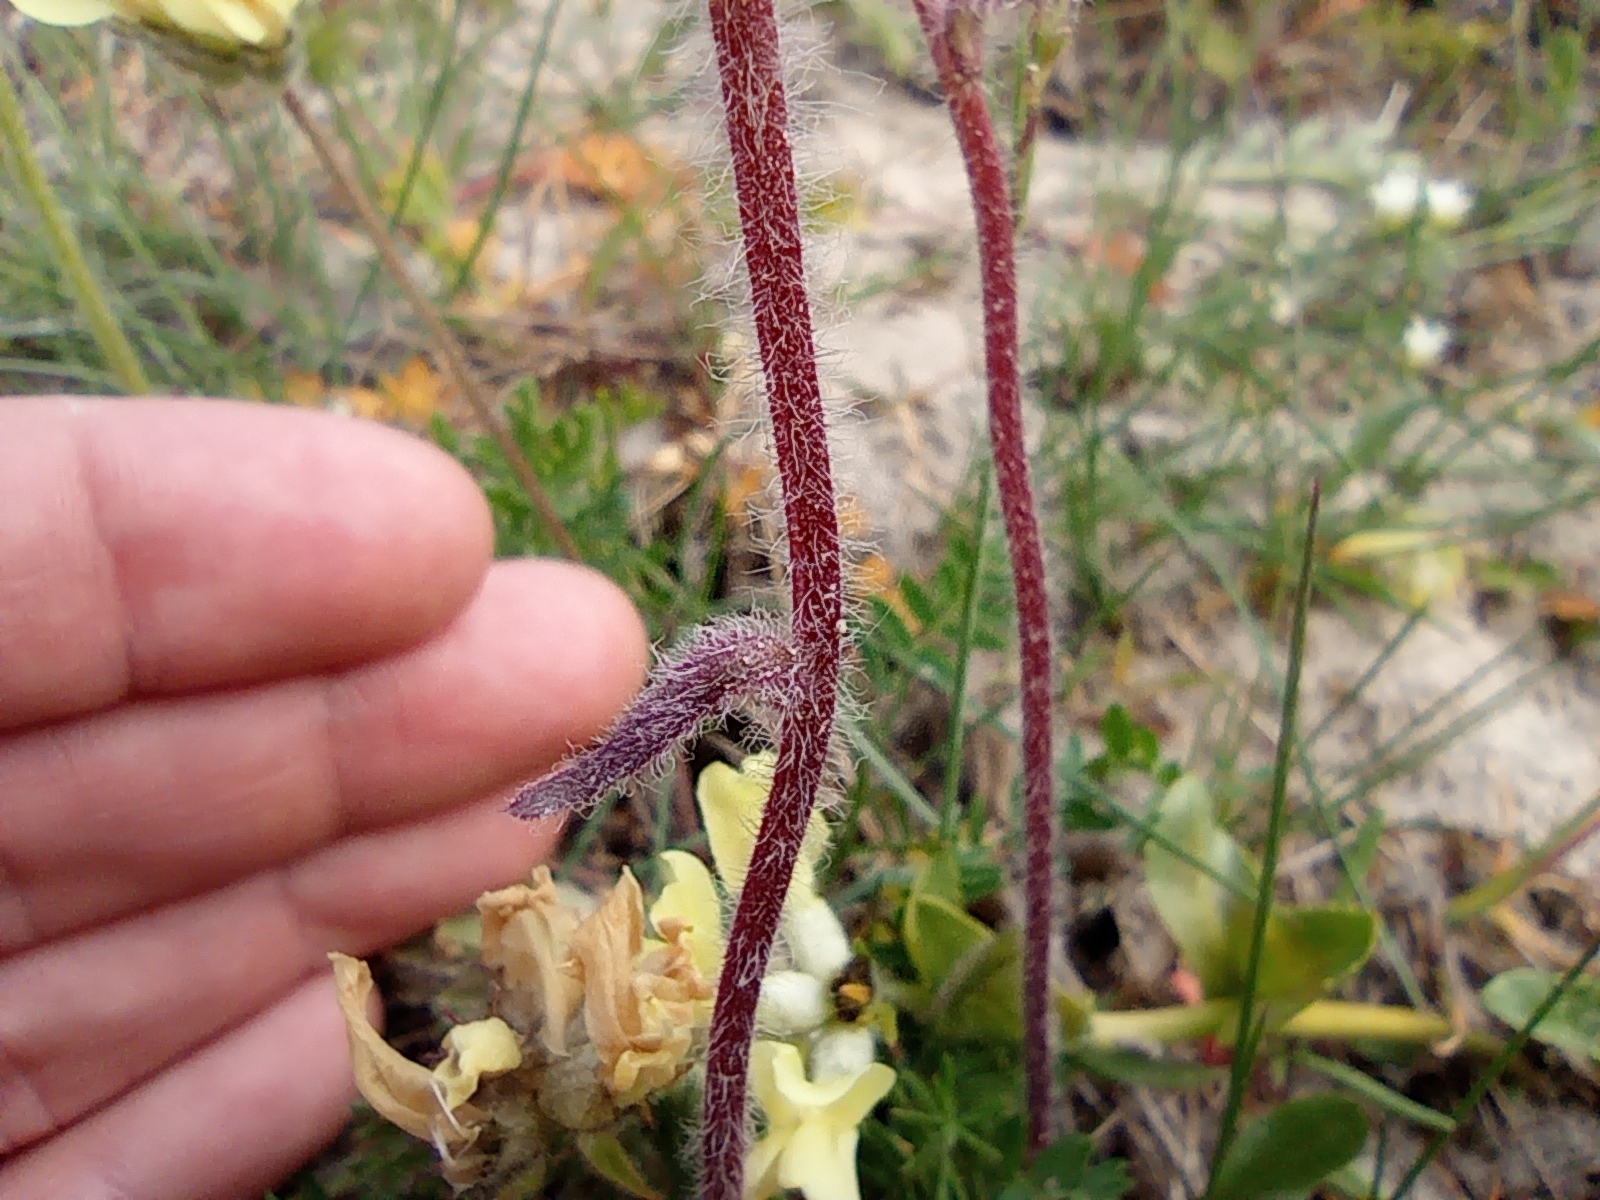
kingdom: Plantae
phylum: Tracheophyta
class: Magnoliopsida
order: Asterales
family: Asteraceae
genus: Erigeron
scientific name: Erigeron eriocephalus
